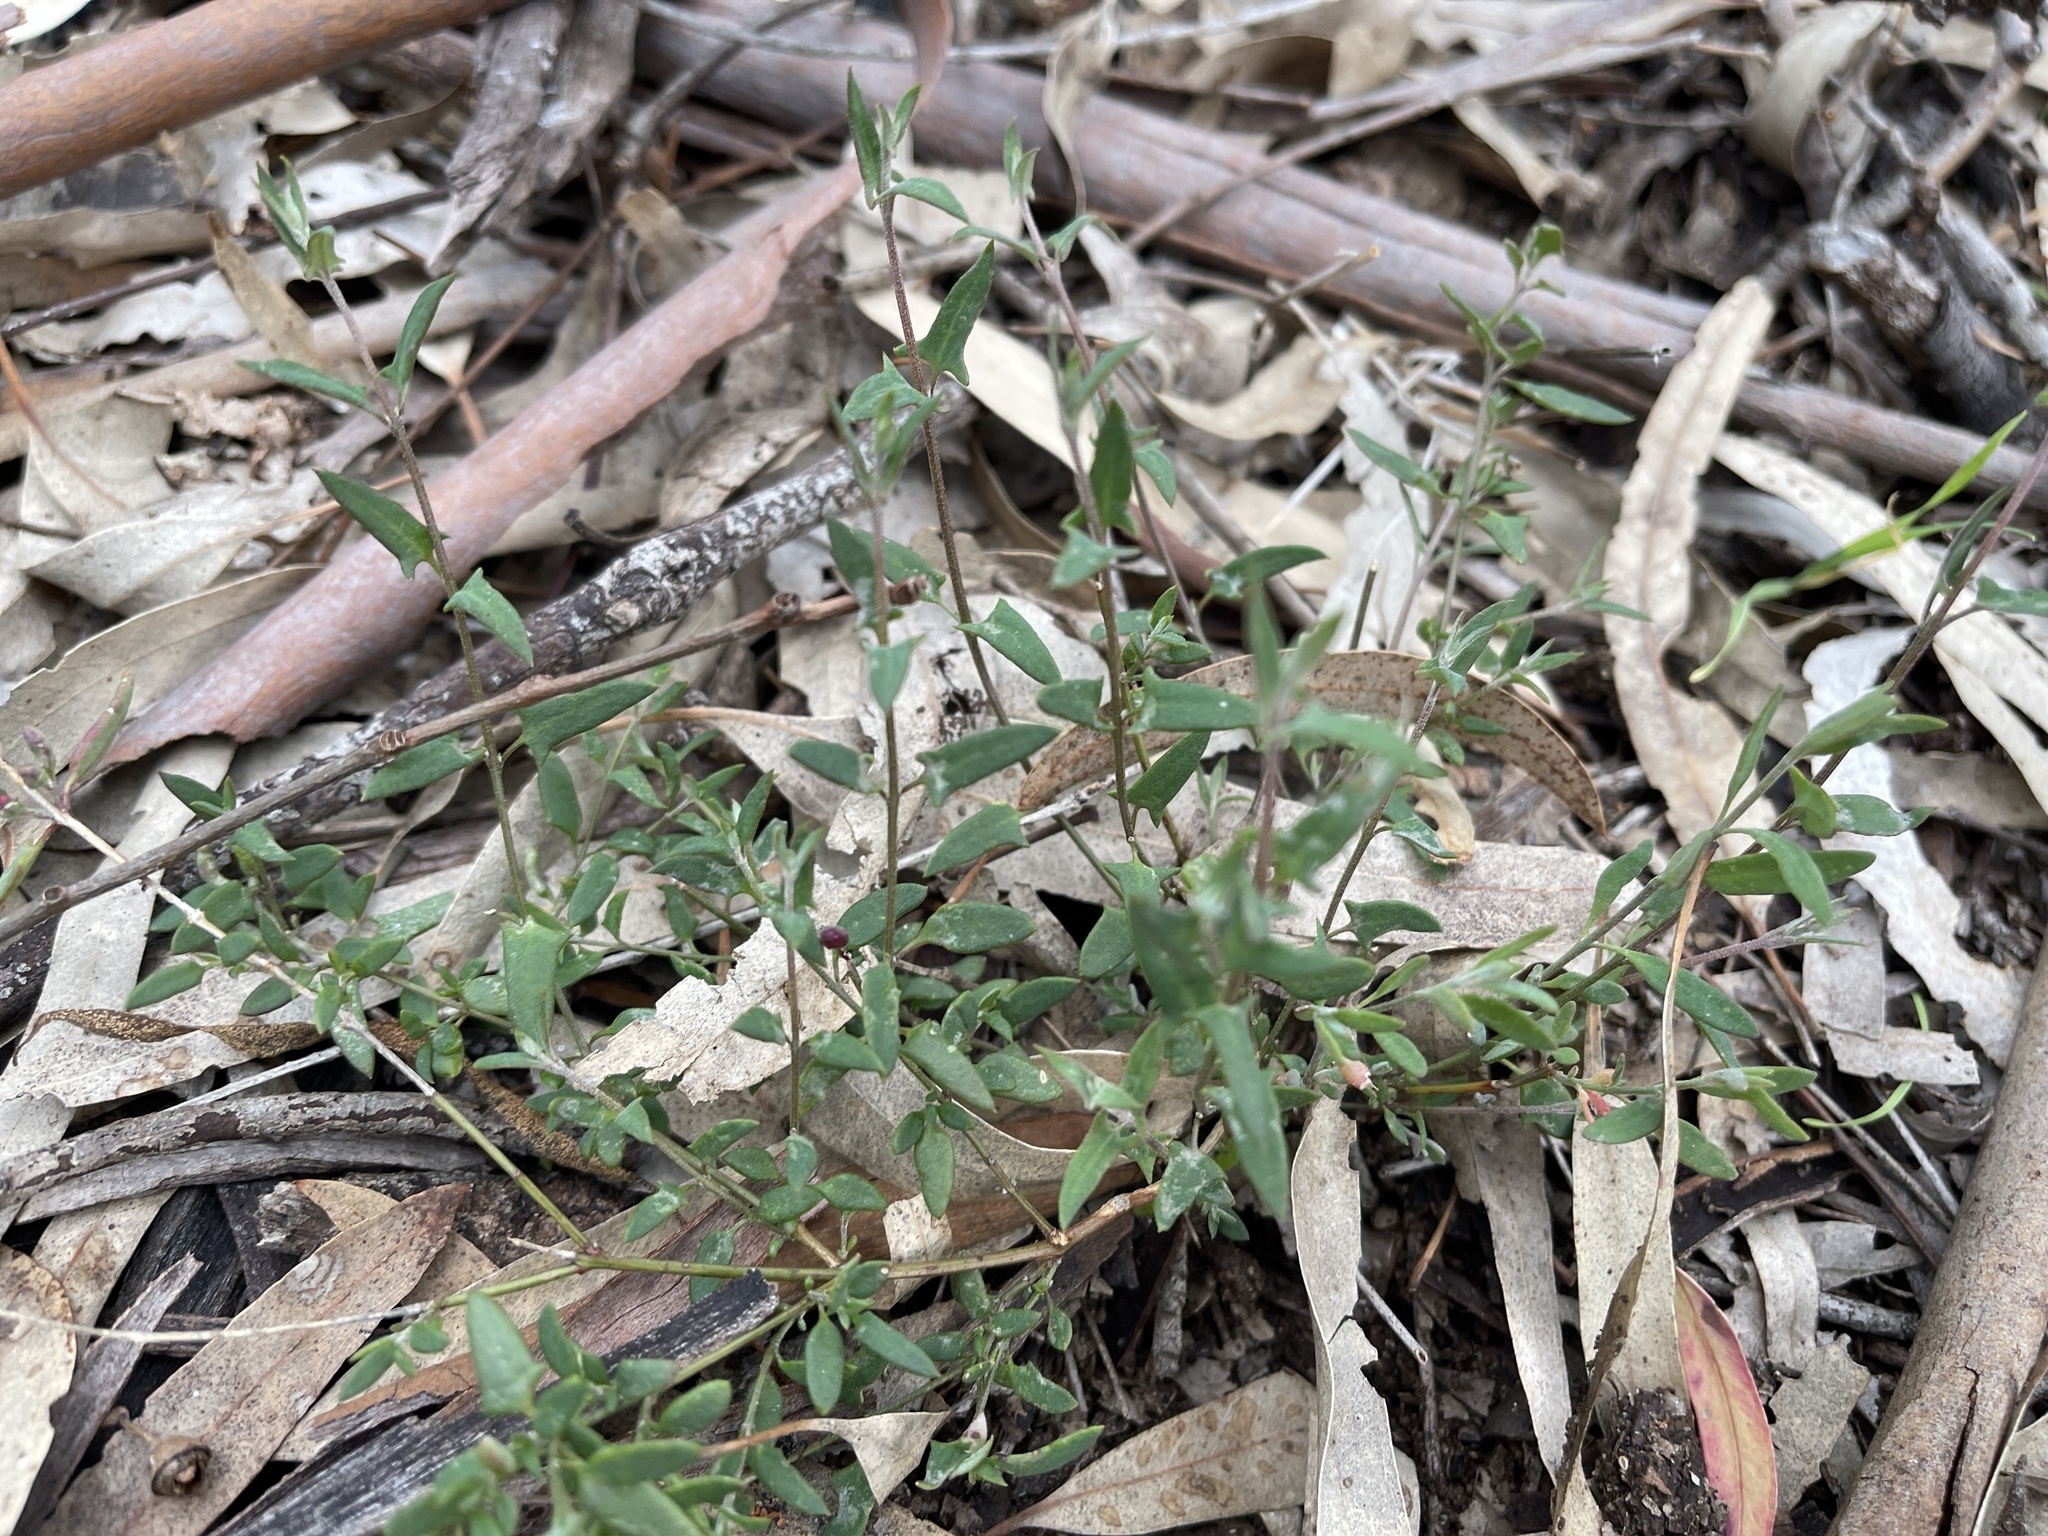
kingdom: Plantae
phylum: Tracheophyta
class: Magnoliopsida
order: Caryophyllales
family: Amaranthaceae
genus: Chenopodium
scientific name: Chenopodium nutans
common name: Climbing-saltbush
